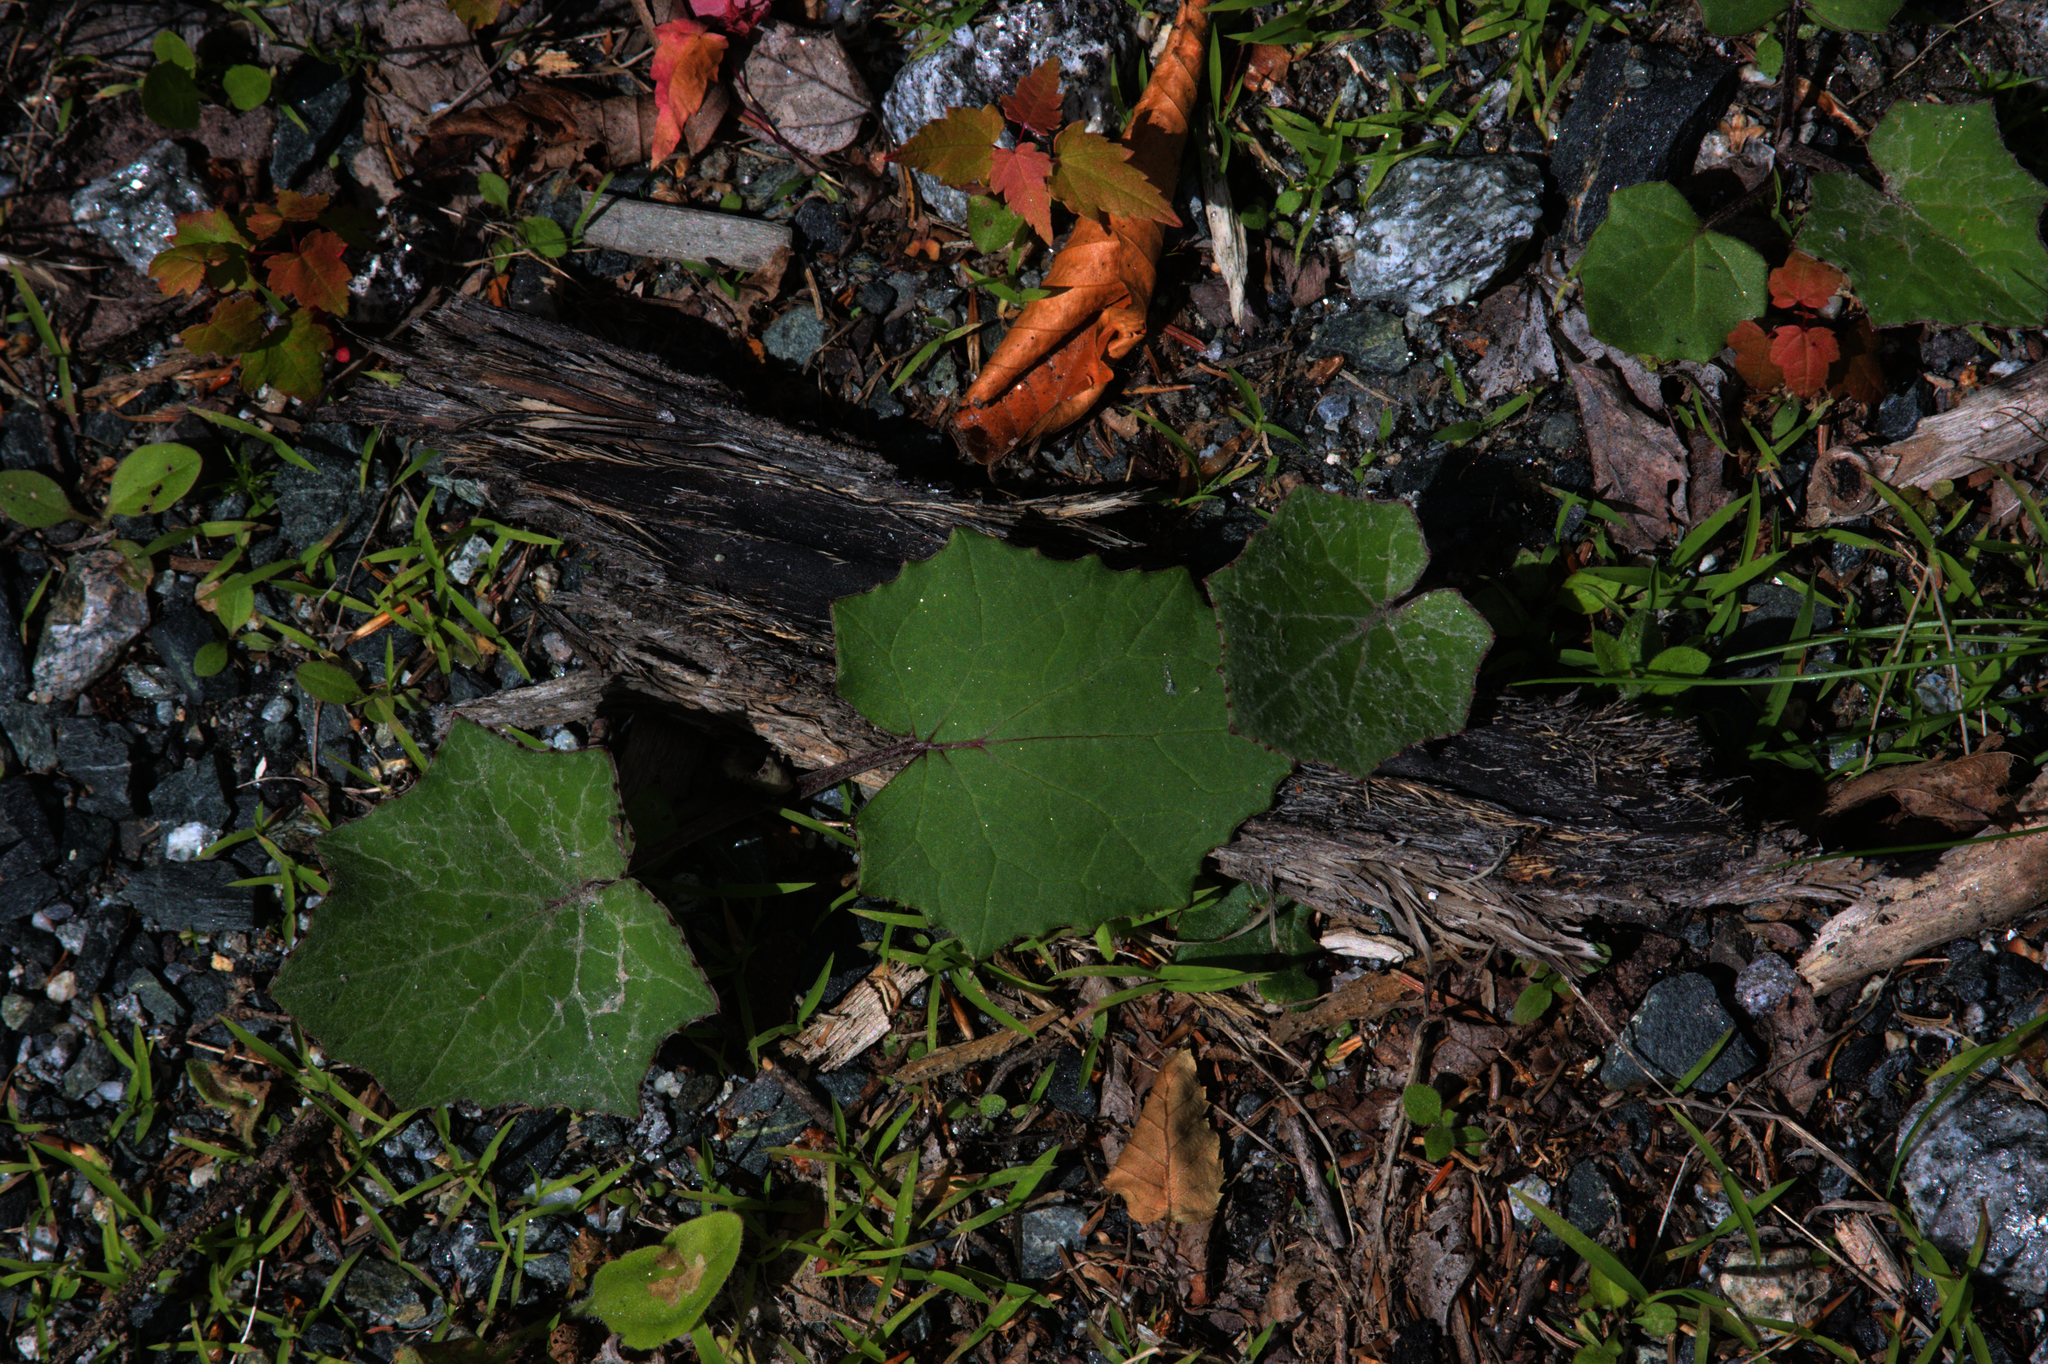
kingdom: Plantae
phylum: Tracheophyta
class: Magnoliopsida
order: Asterales
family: Asteraceae
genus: Tussilago
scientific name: Tussilago farfara
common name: Coltsfoot
